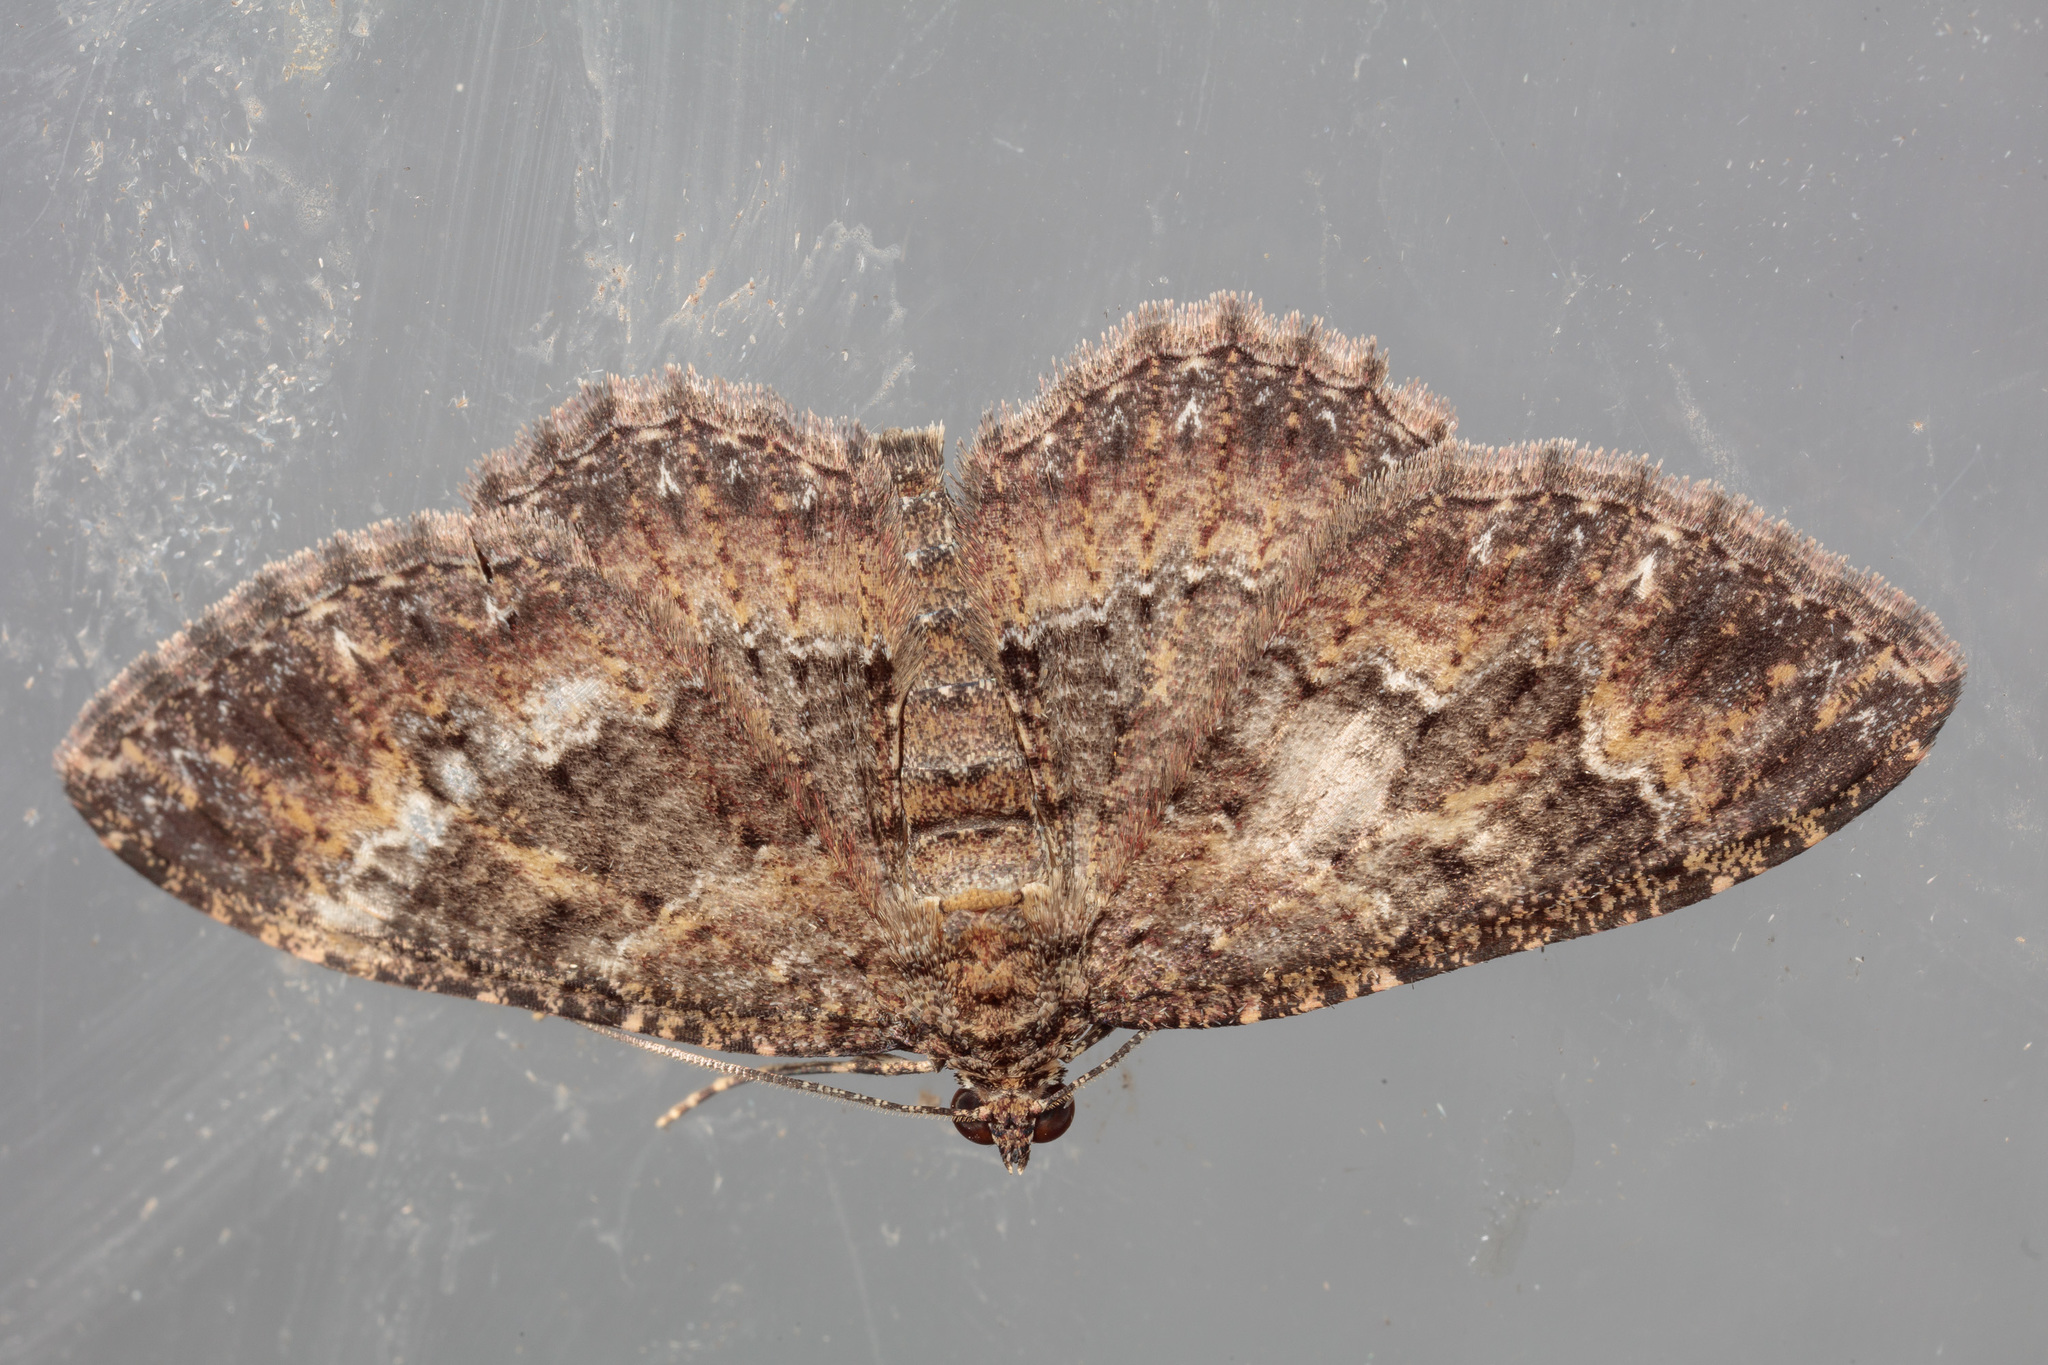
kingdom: Animalia
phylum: Arthropoda
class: Insecta
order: Lepidoptera
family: Geometridae
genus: Disclisioprocta
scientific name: Disclisioprocta stellata
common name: Somber carpet
